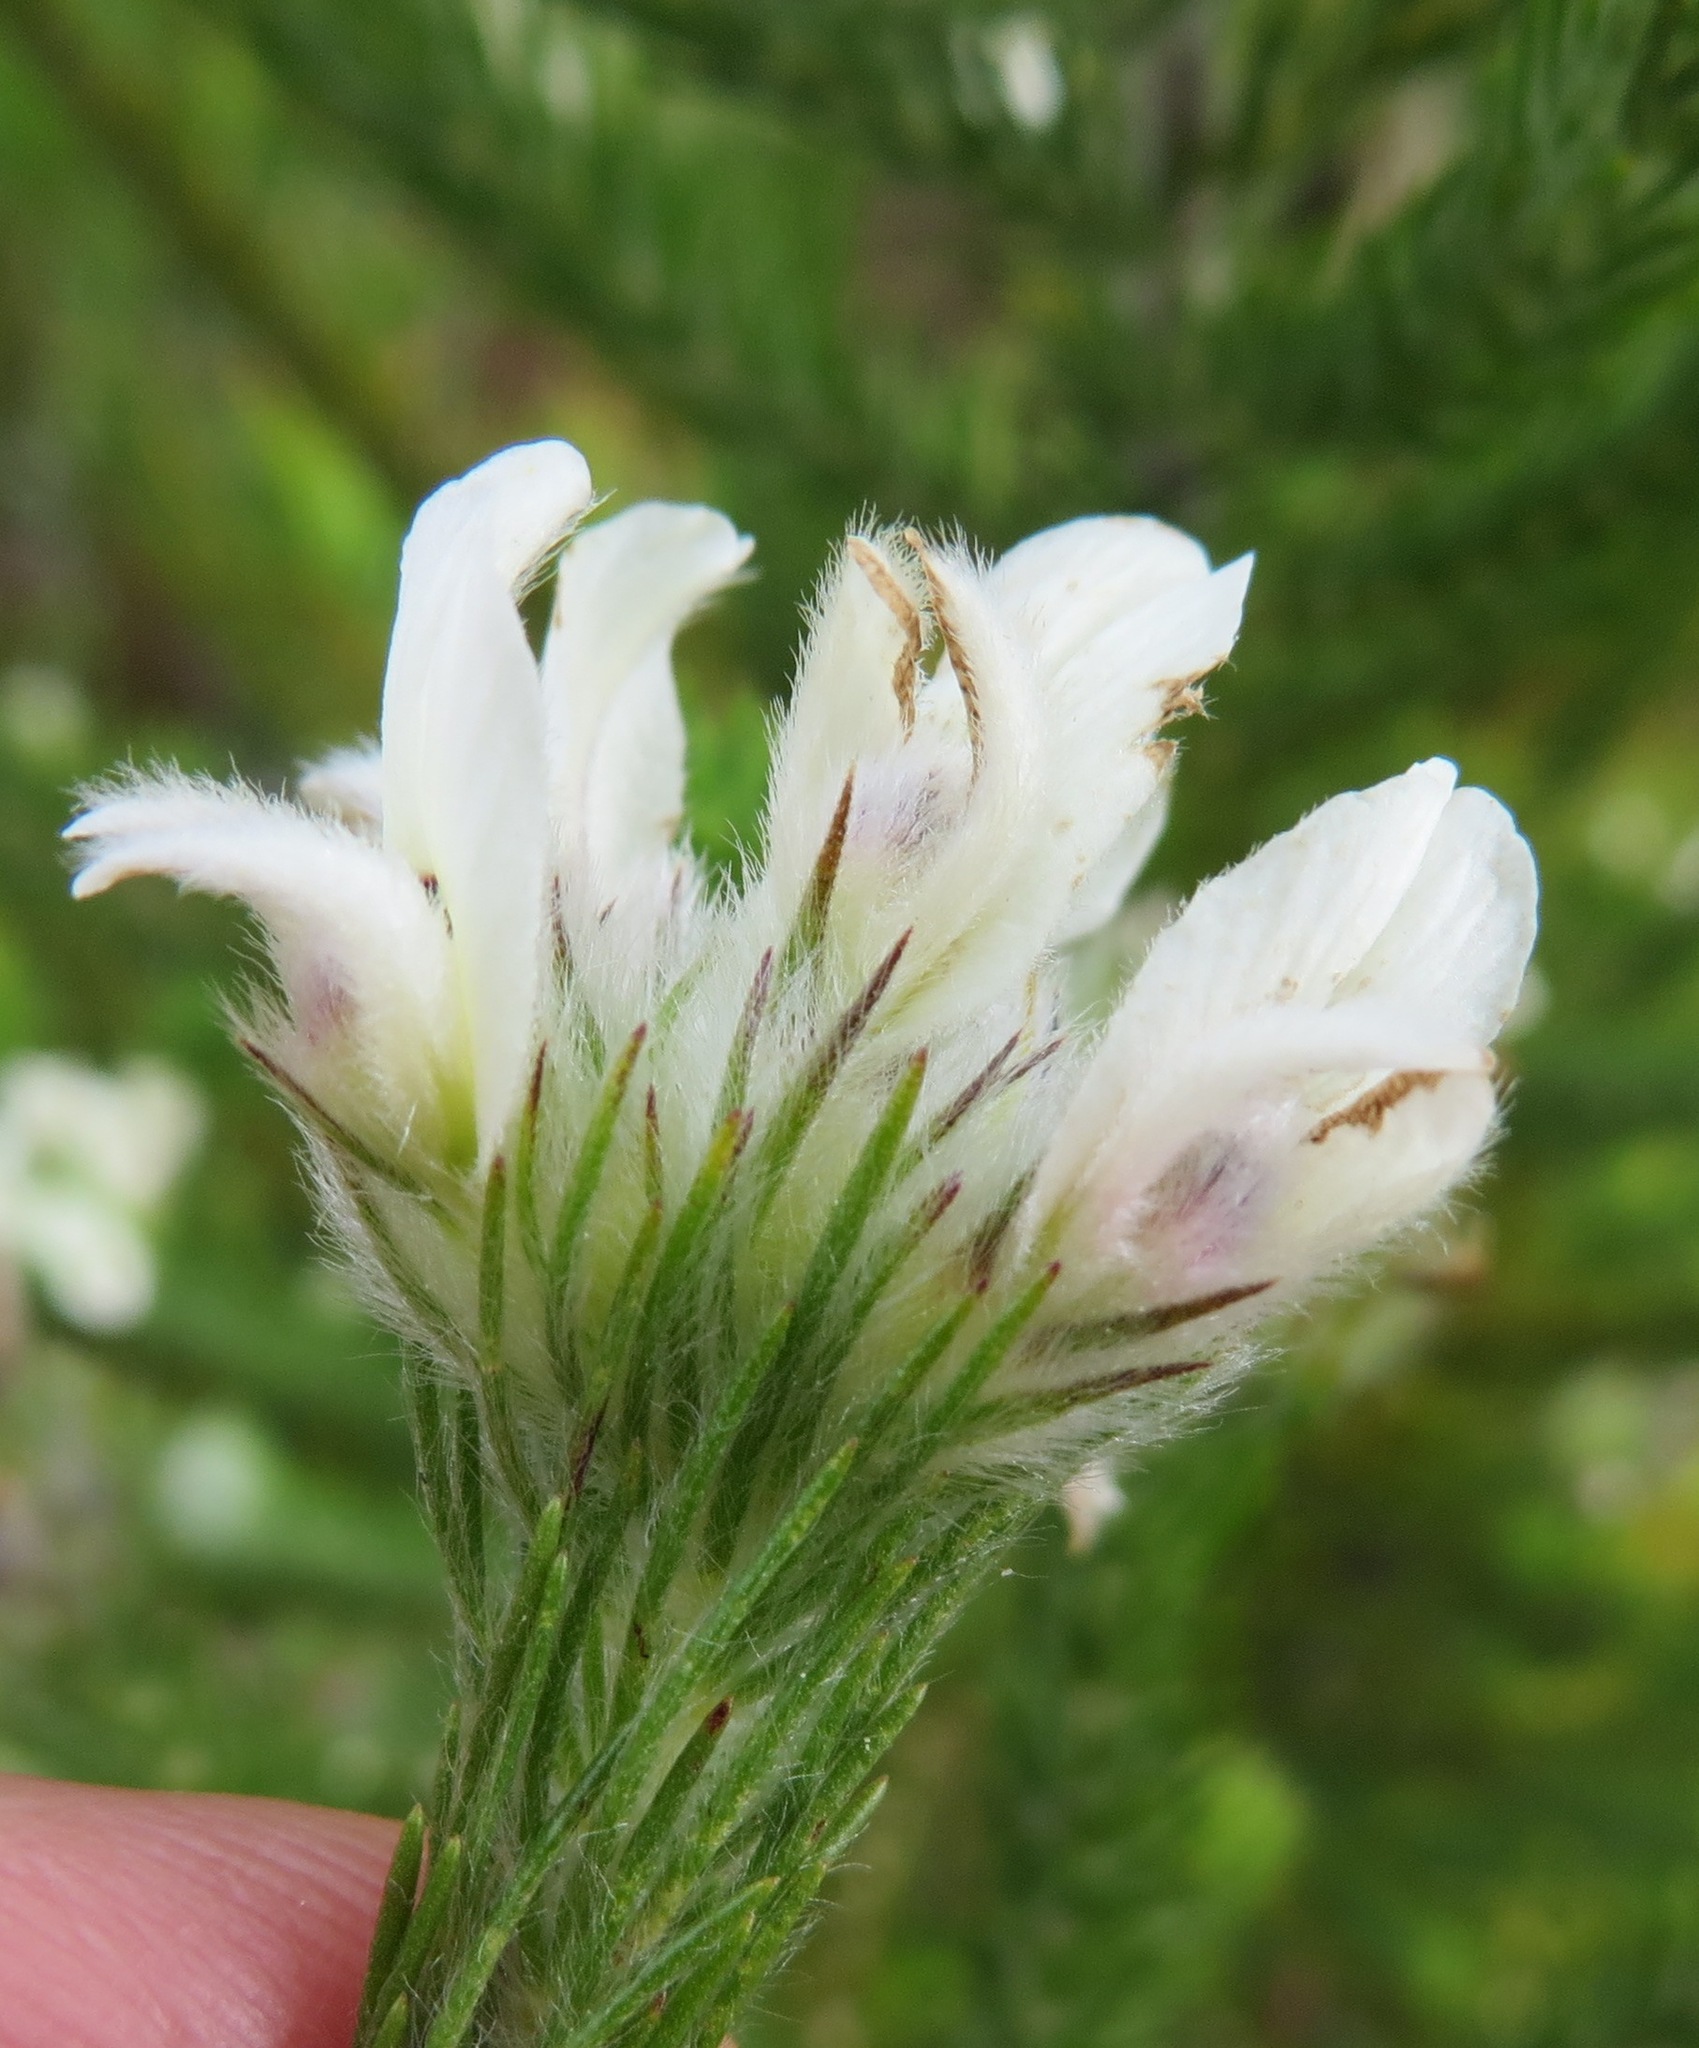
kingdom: Plantae
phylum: Tracheophyta
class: Magnoliopsida
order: Fabales
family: Fabaceae
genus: Aspalathus
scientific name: Aspalathus cephalotes
